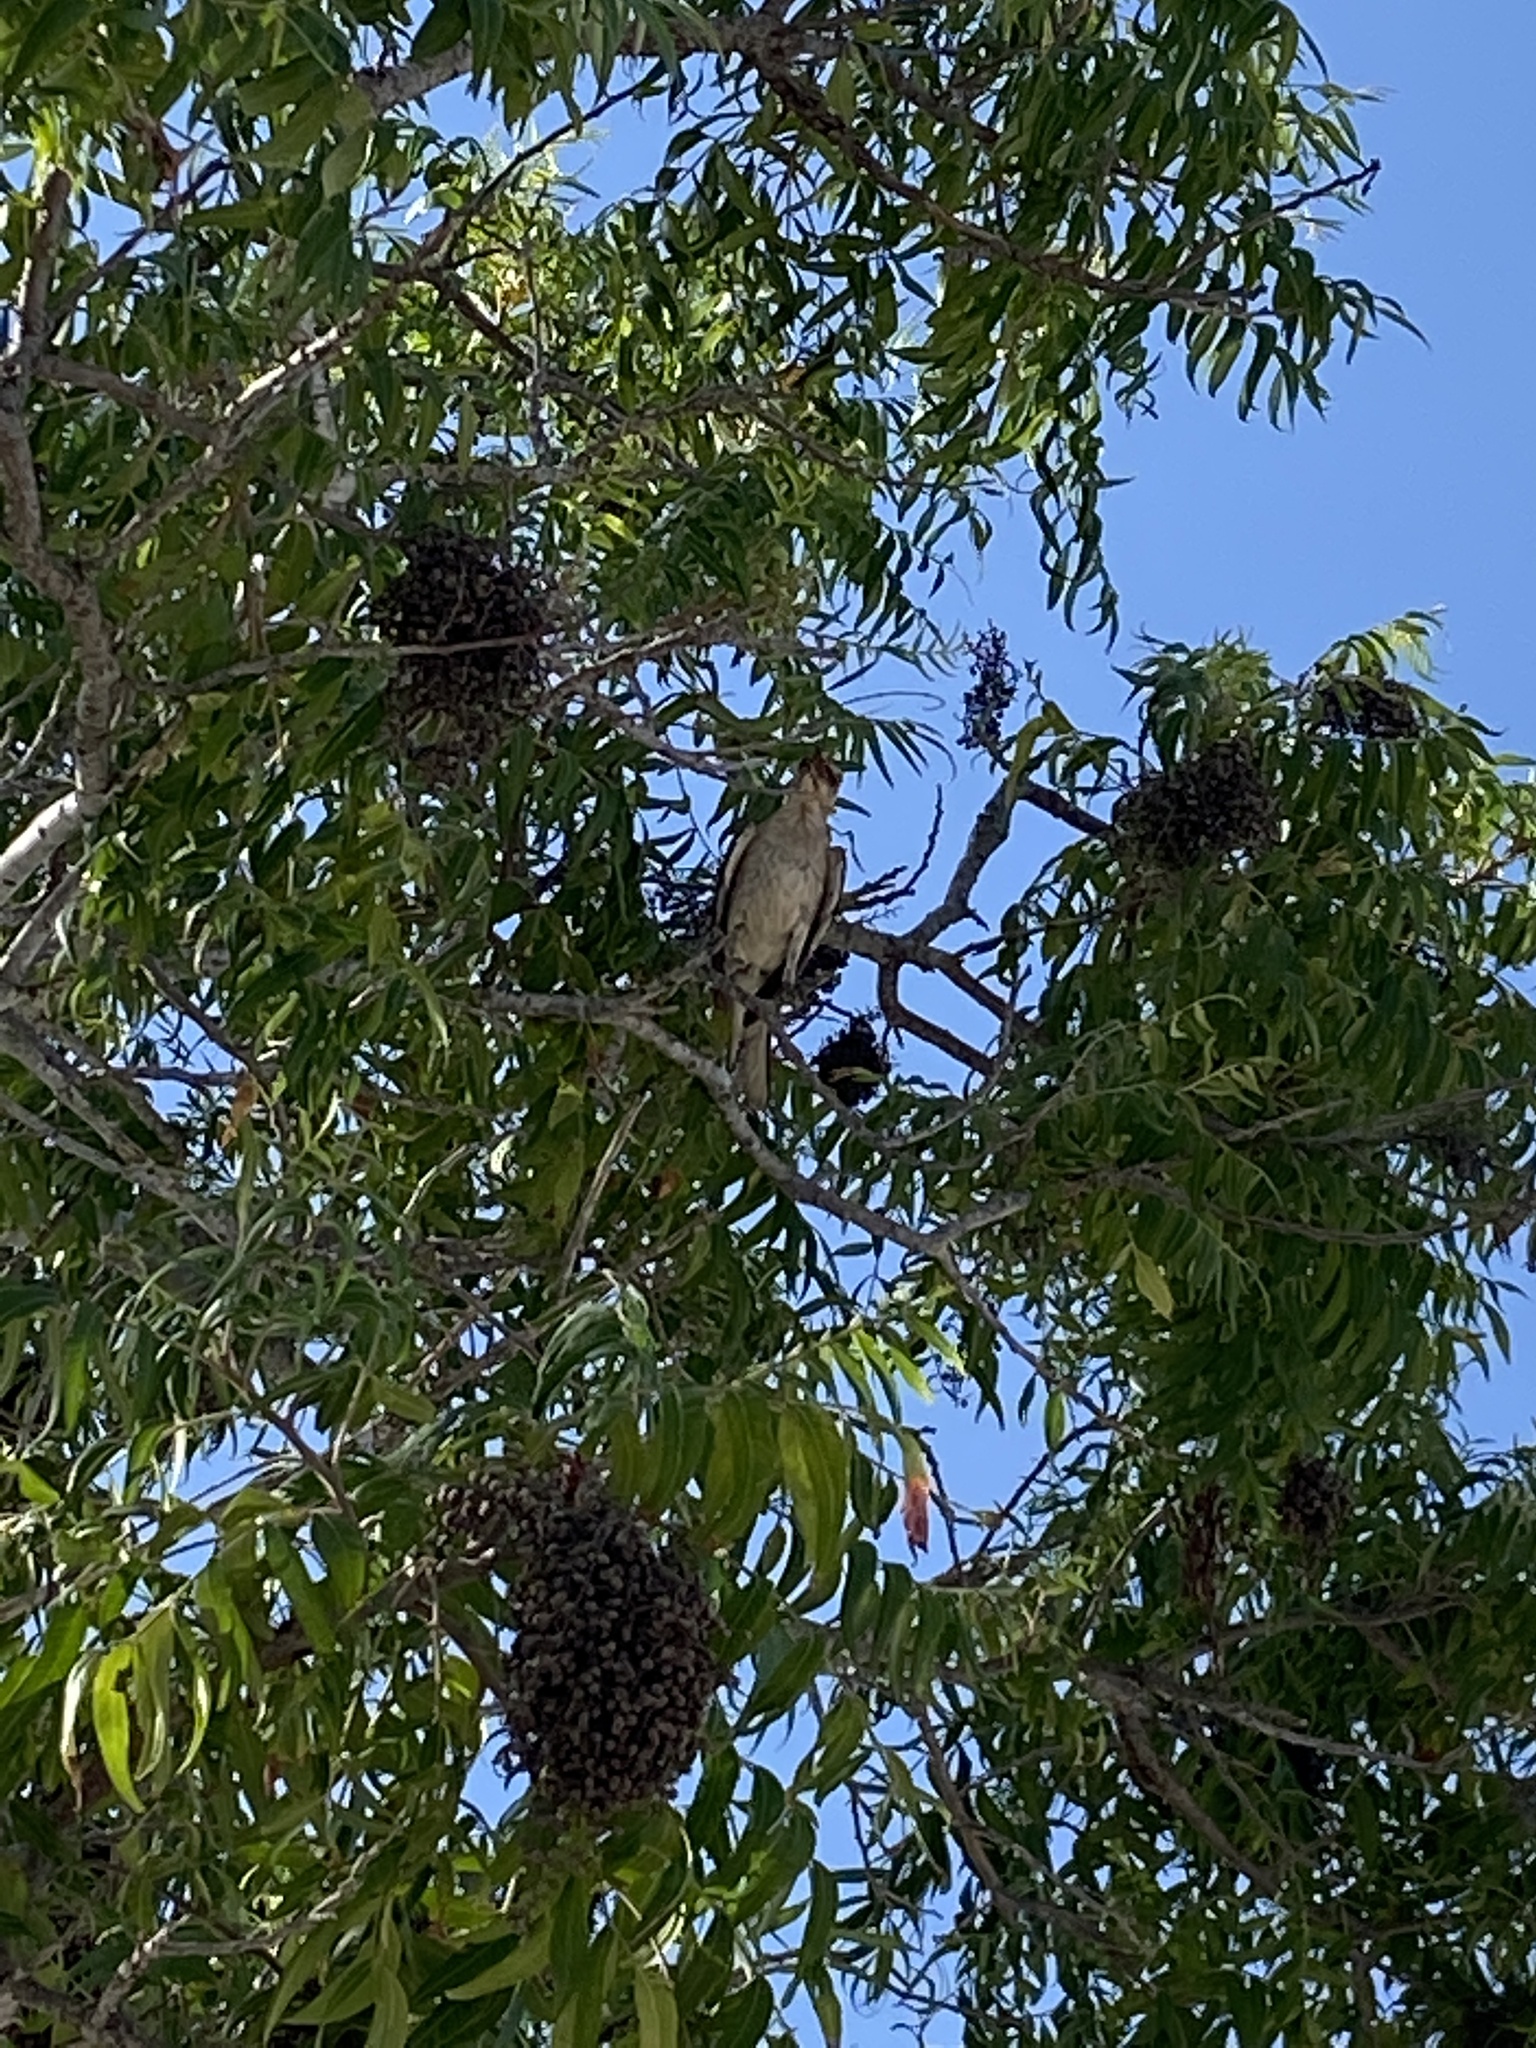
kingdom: Animalia
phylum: Chordata
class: Aves
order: Passeriformes
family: Mimidae
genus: Mimus
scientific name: Mimus polyglottos
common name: Northern mockingbird
